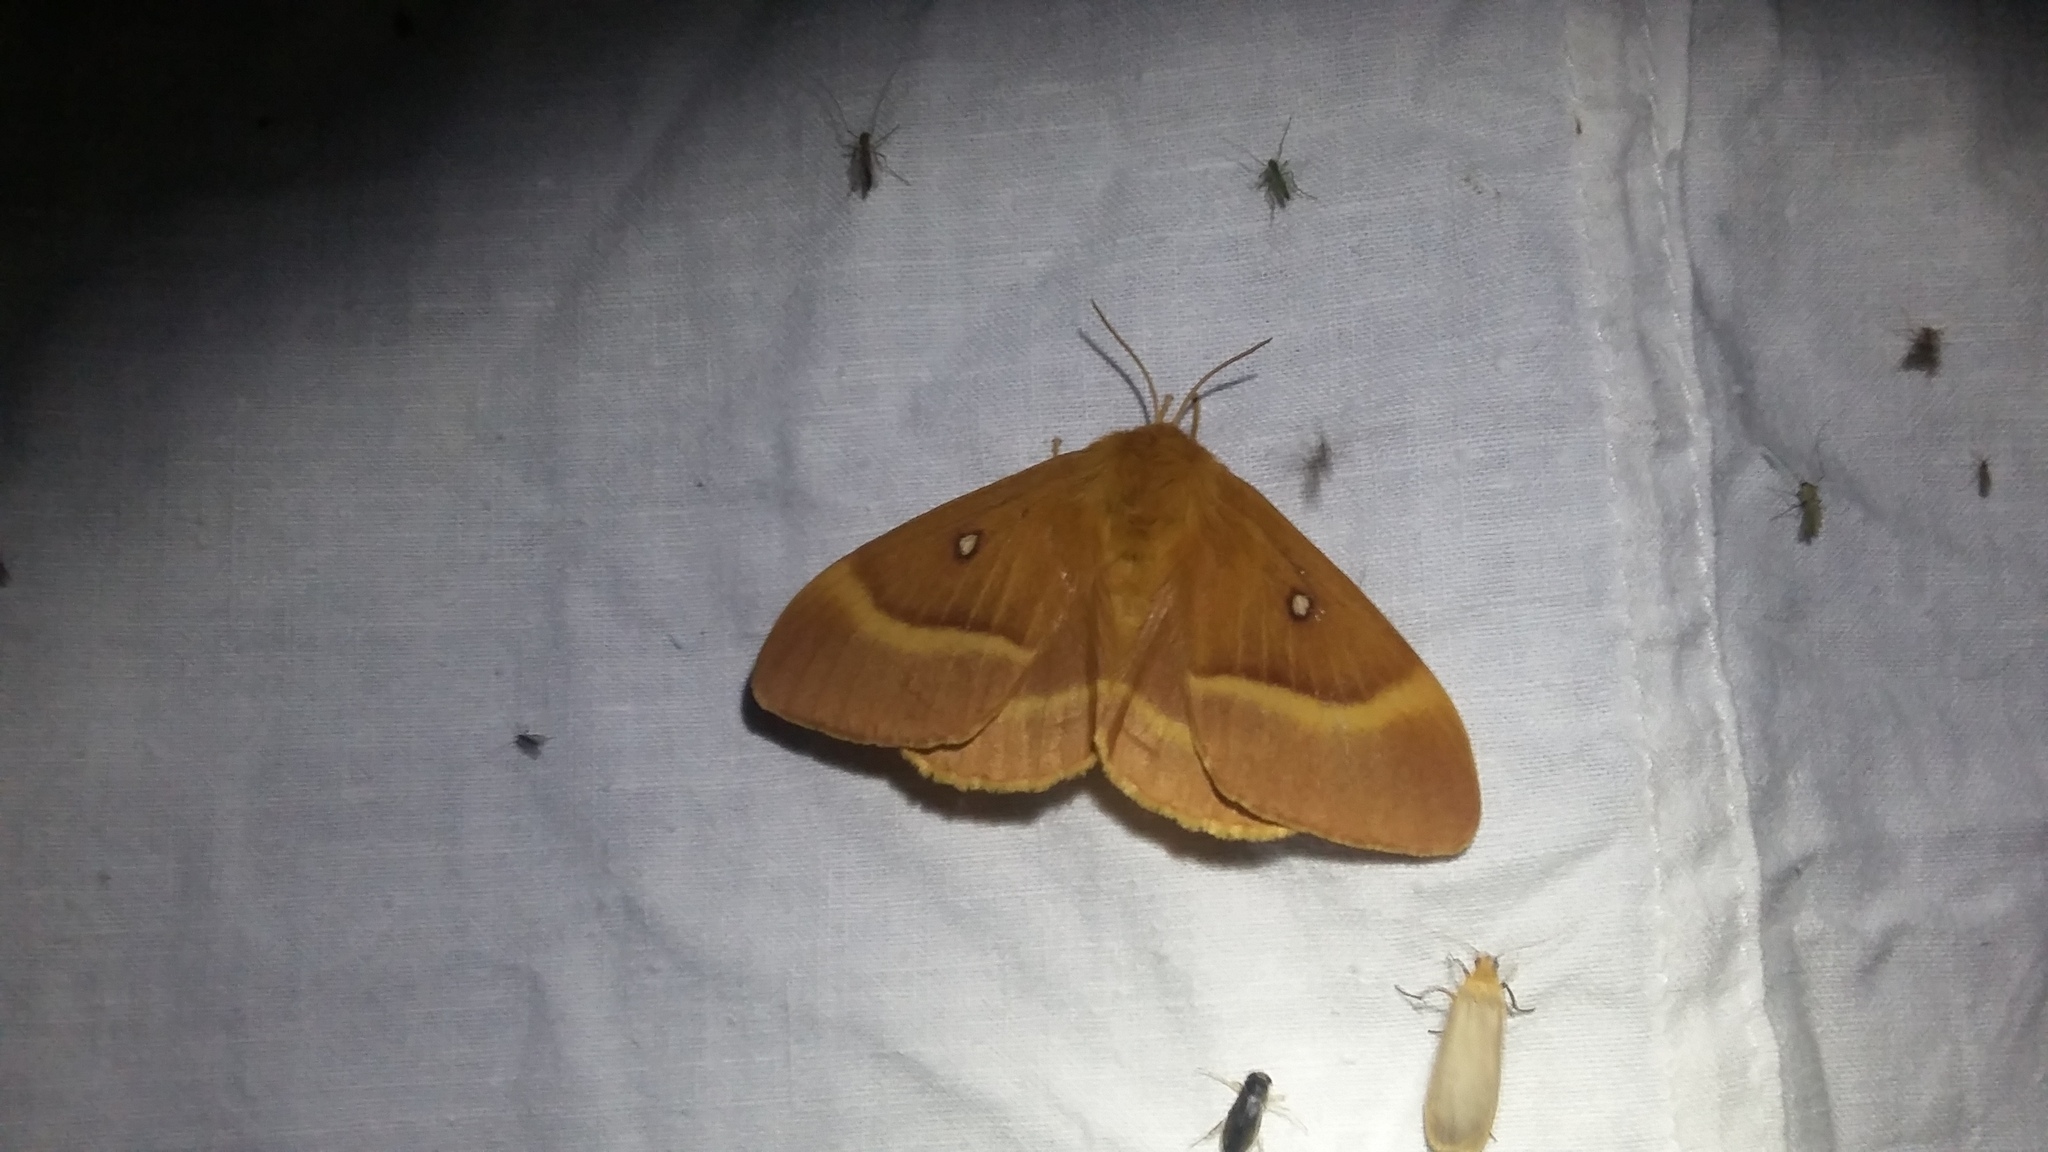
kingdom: Animalia
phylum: Arthropoda
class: Insecta
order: Lepidoptera
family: Lasiocampidae
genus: Lasiocampa
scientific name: Lasiocampa quercus
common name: Oak eggar
